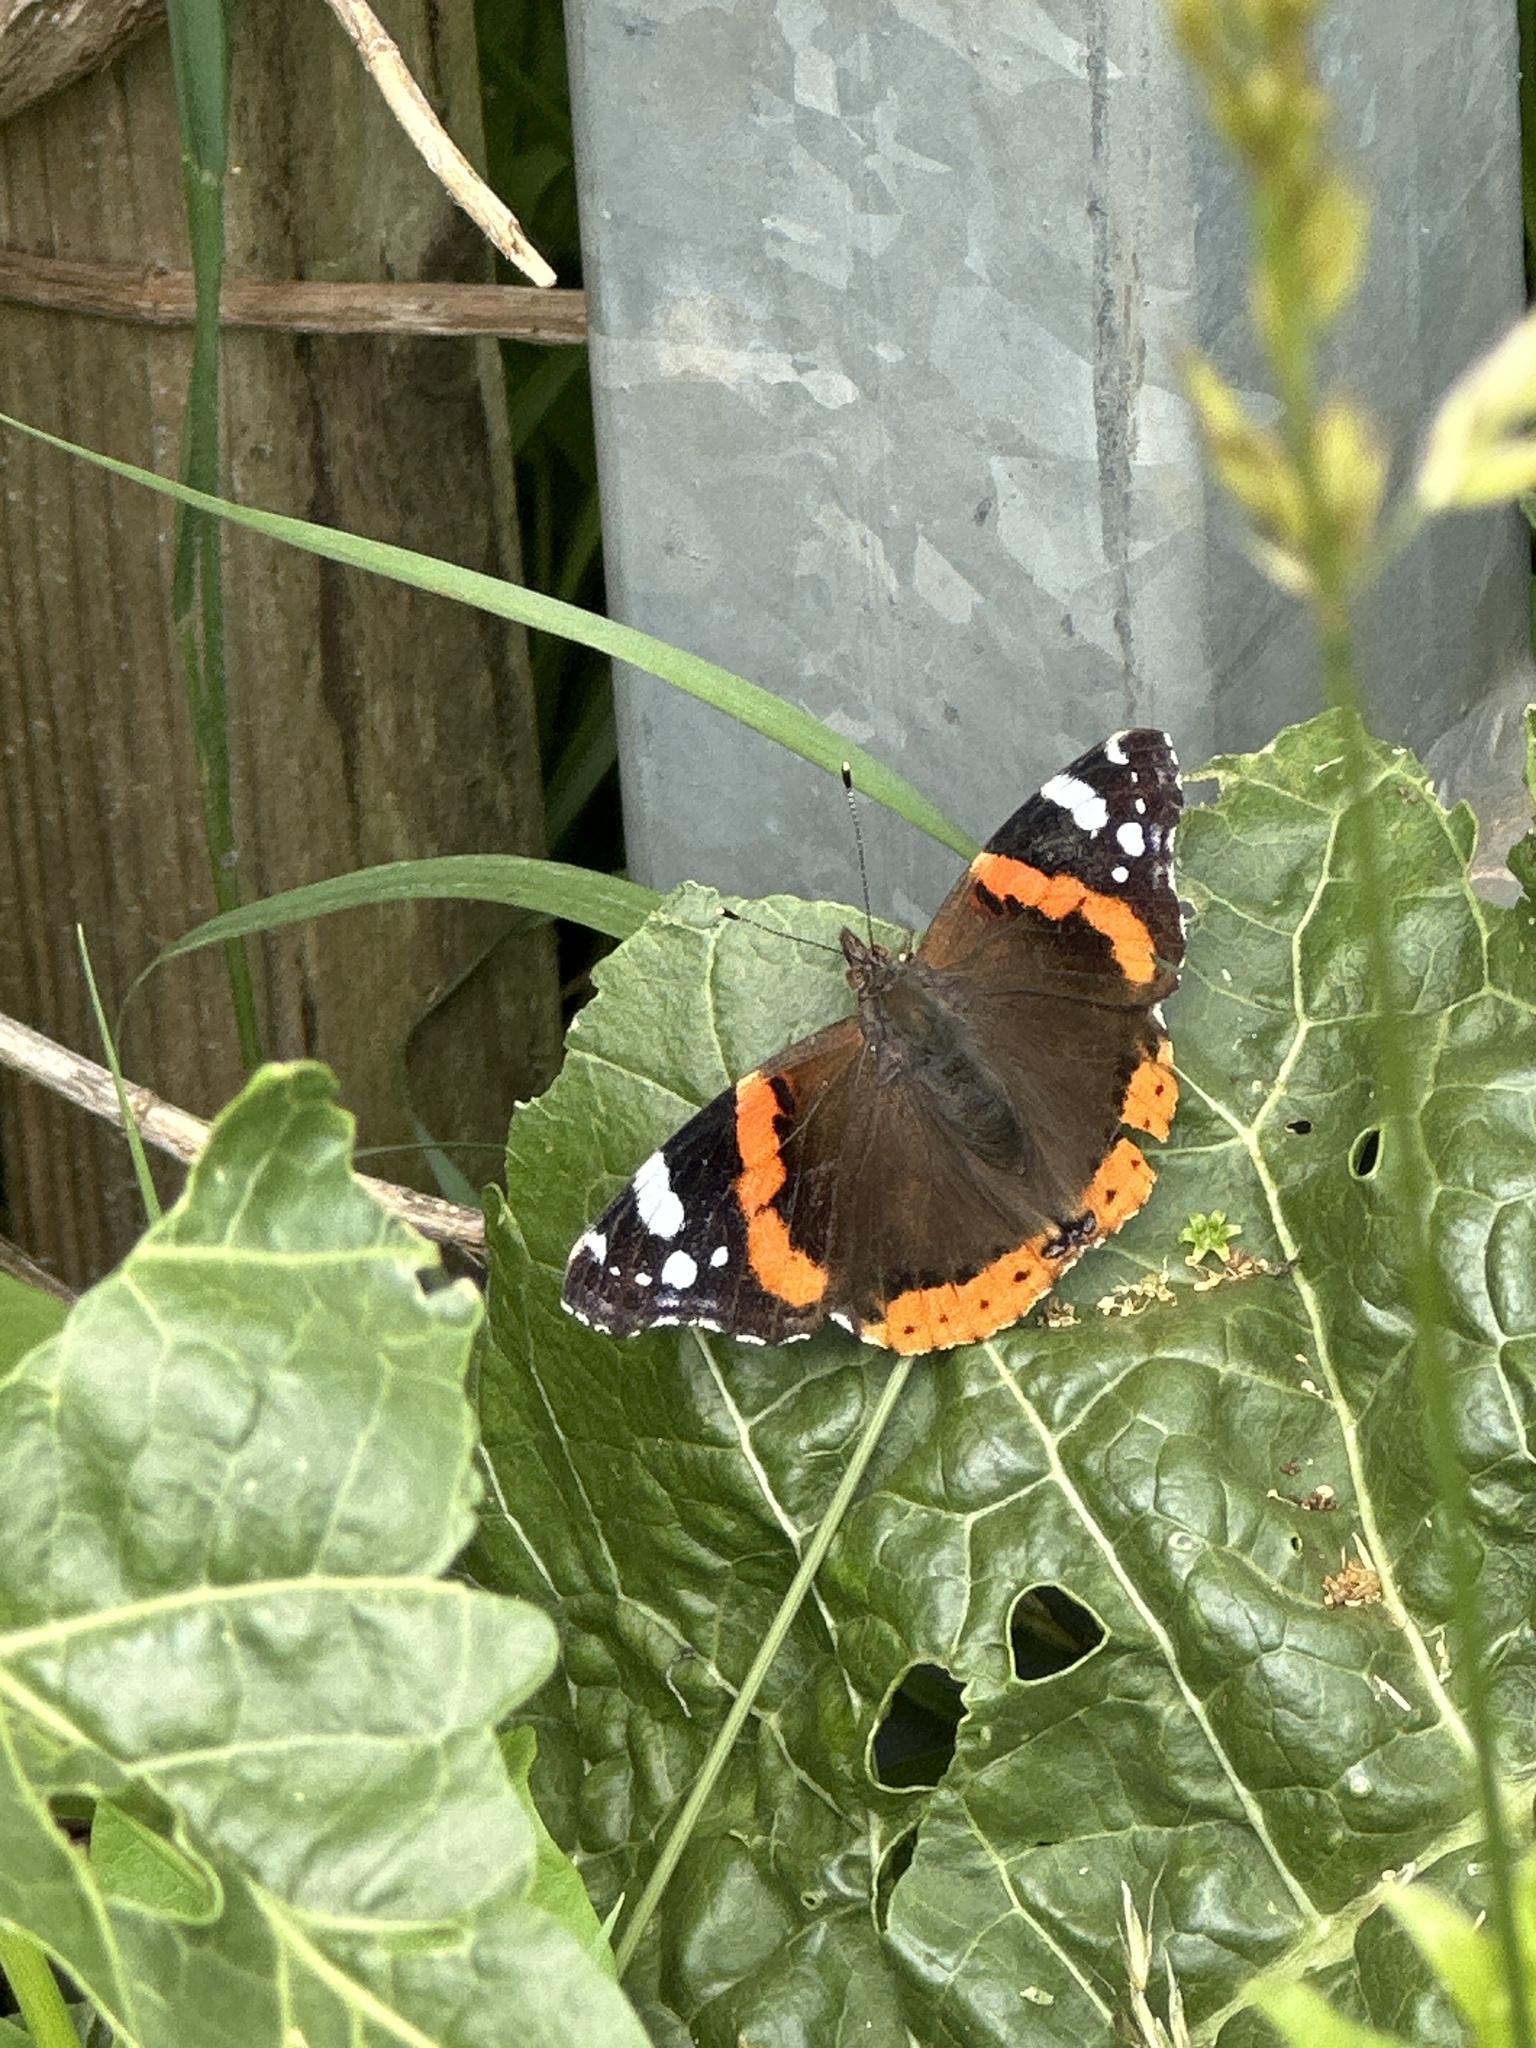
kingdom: Animalia
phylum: Arthropoda
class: Insecta
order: Lepidoptera
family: Nymphalidae
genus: Vanessa
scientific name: Vanessa atalanta
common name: Red admiral
